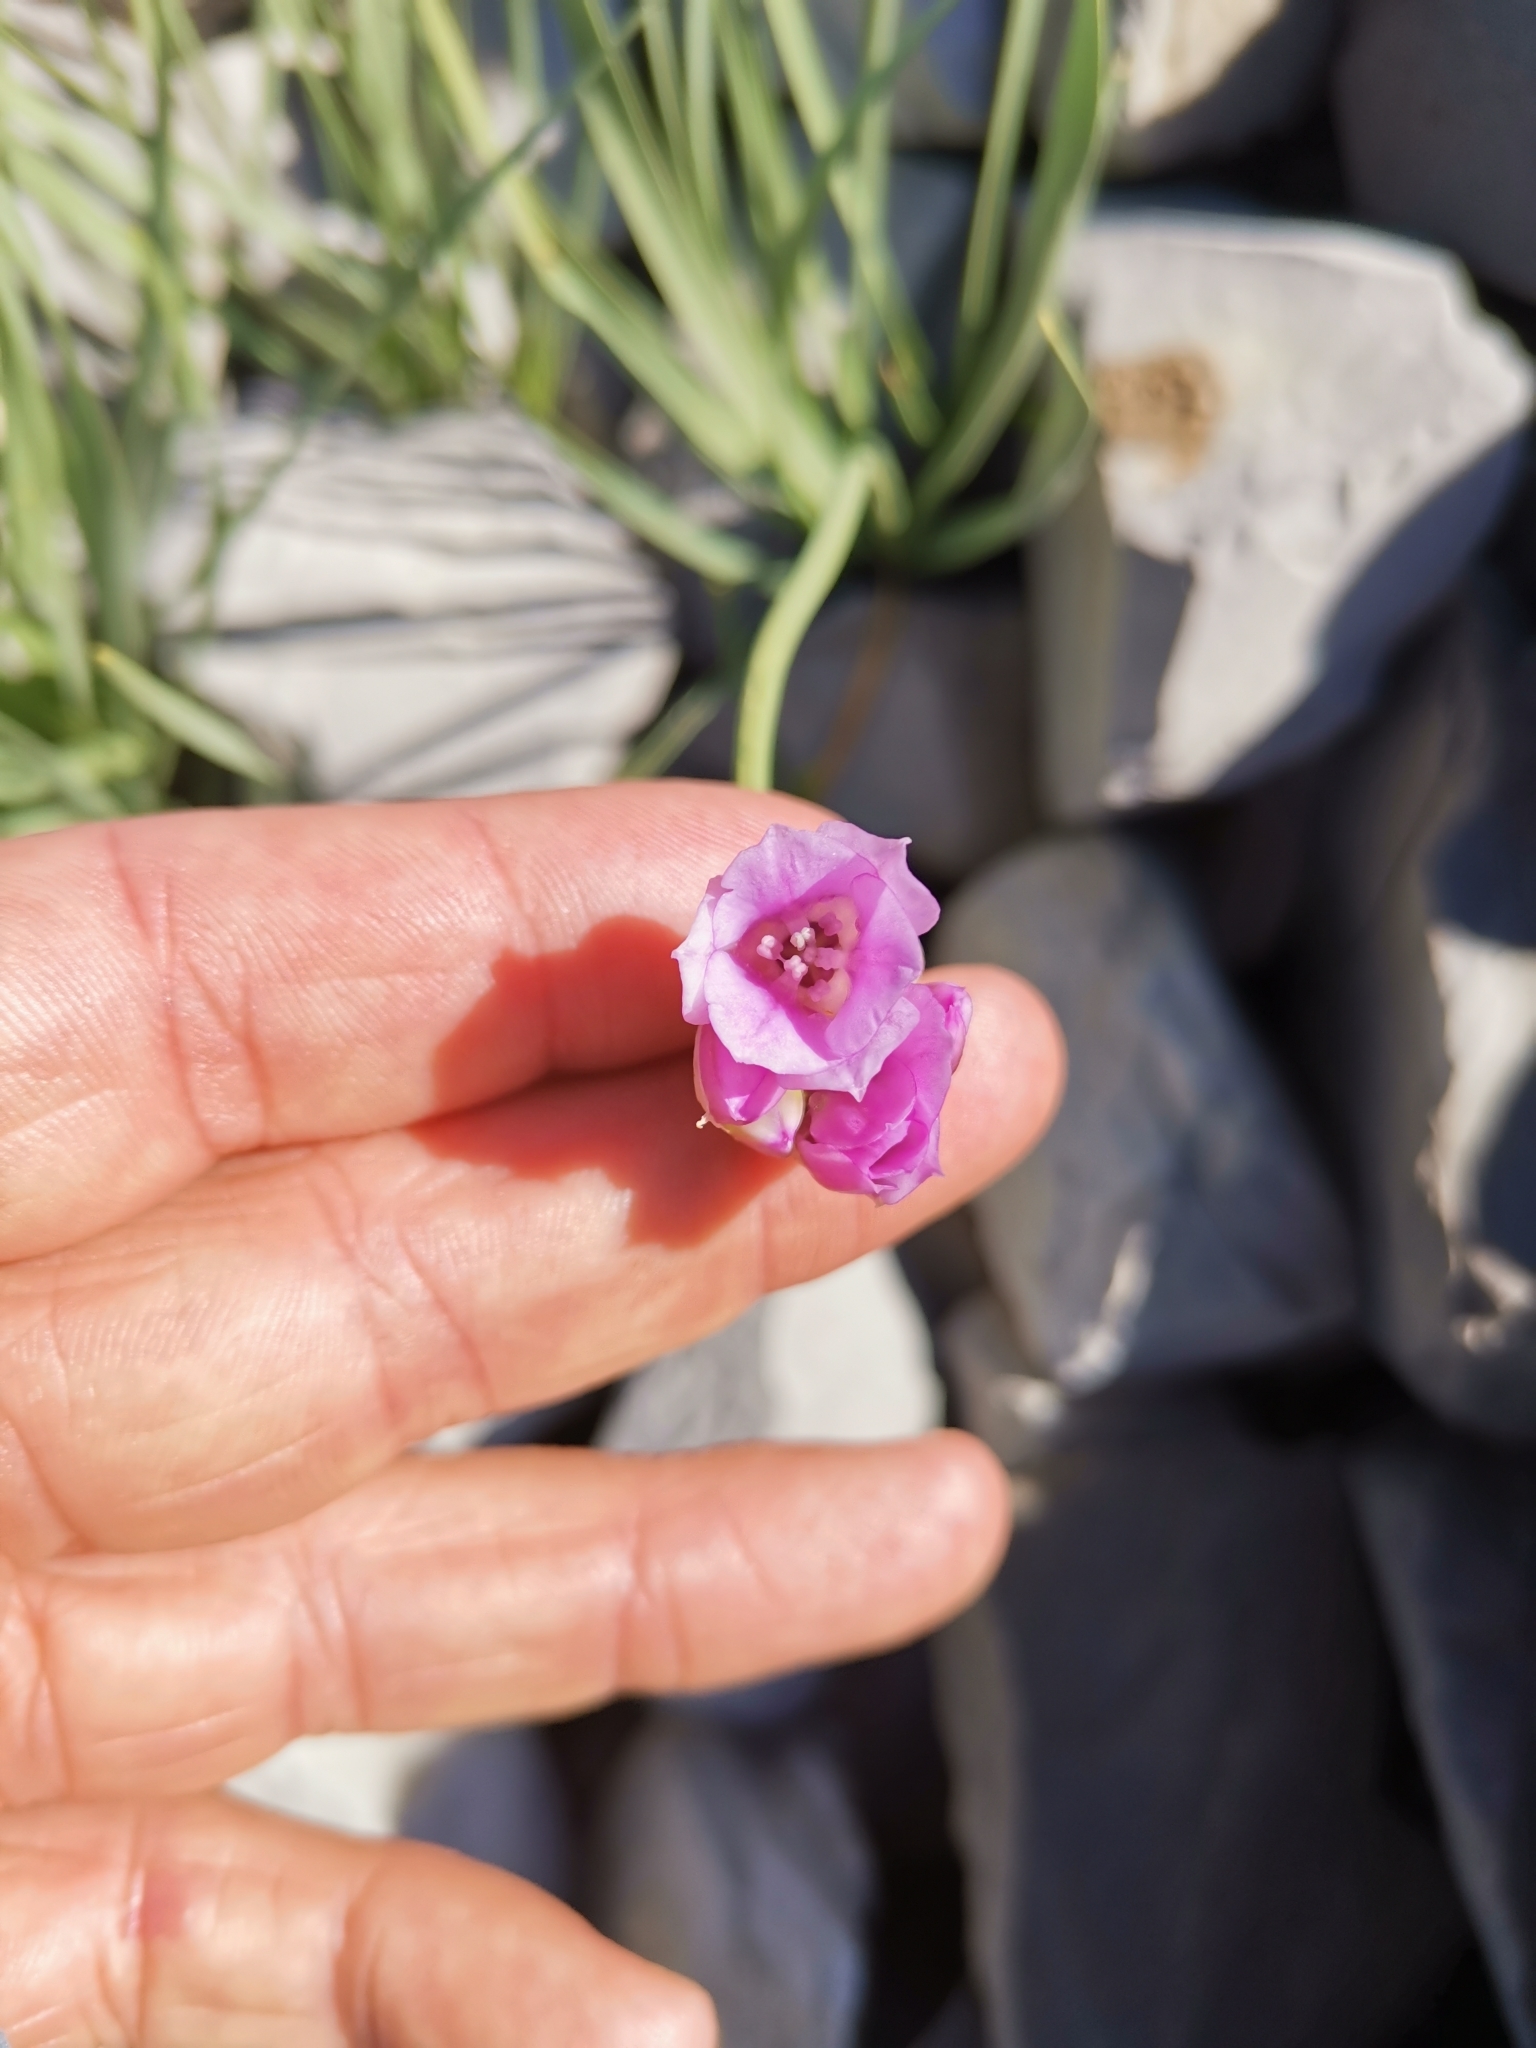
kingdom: Plantae
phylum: Tracheophyta
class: Liliopsida
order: Asparagales
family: Amaryllidaceae
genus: Allium
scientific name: Allium narcissiflorum
